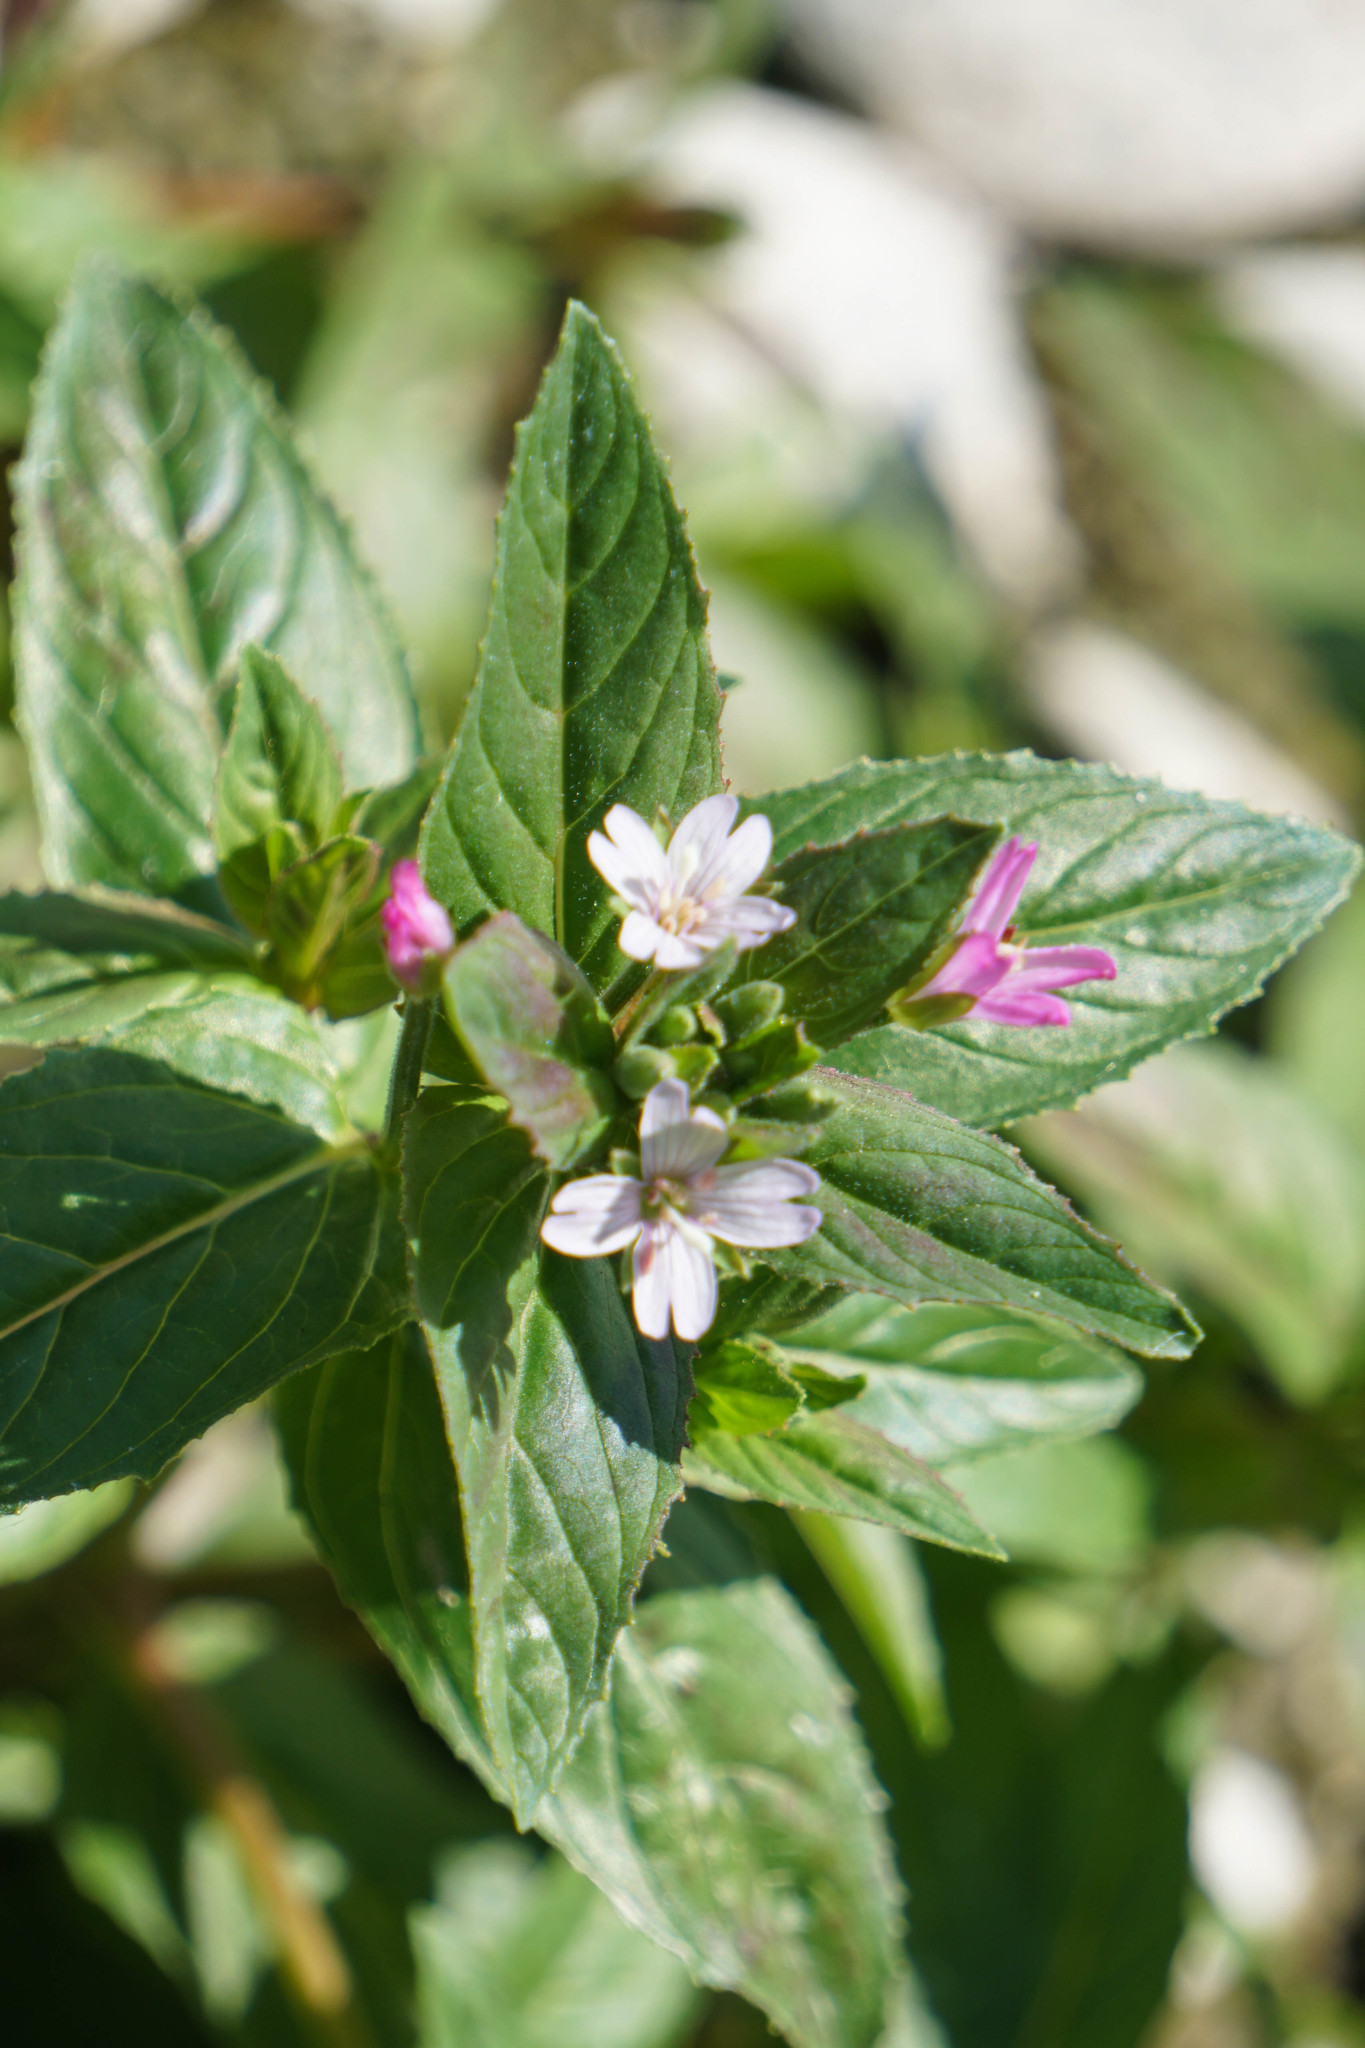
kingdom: Plantae
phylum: Tracheophyta
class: Magnoliopsida
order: Myrtales
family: Onagraceae
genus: Epilobium
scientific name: Epilobium ciliatum
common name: American willowherb
